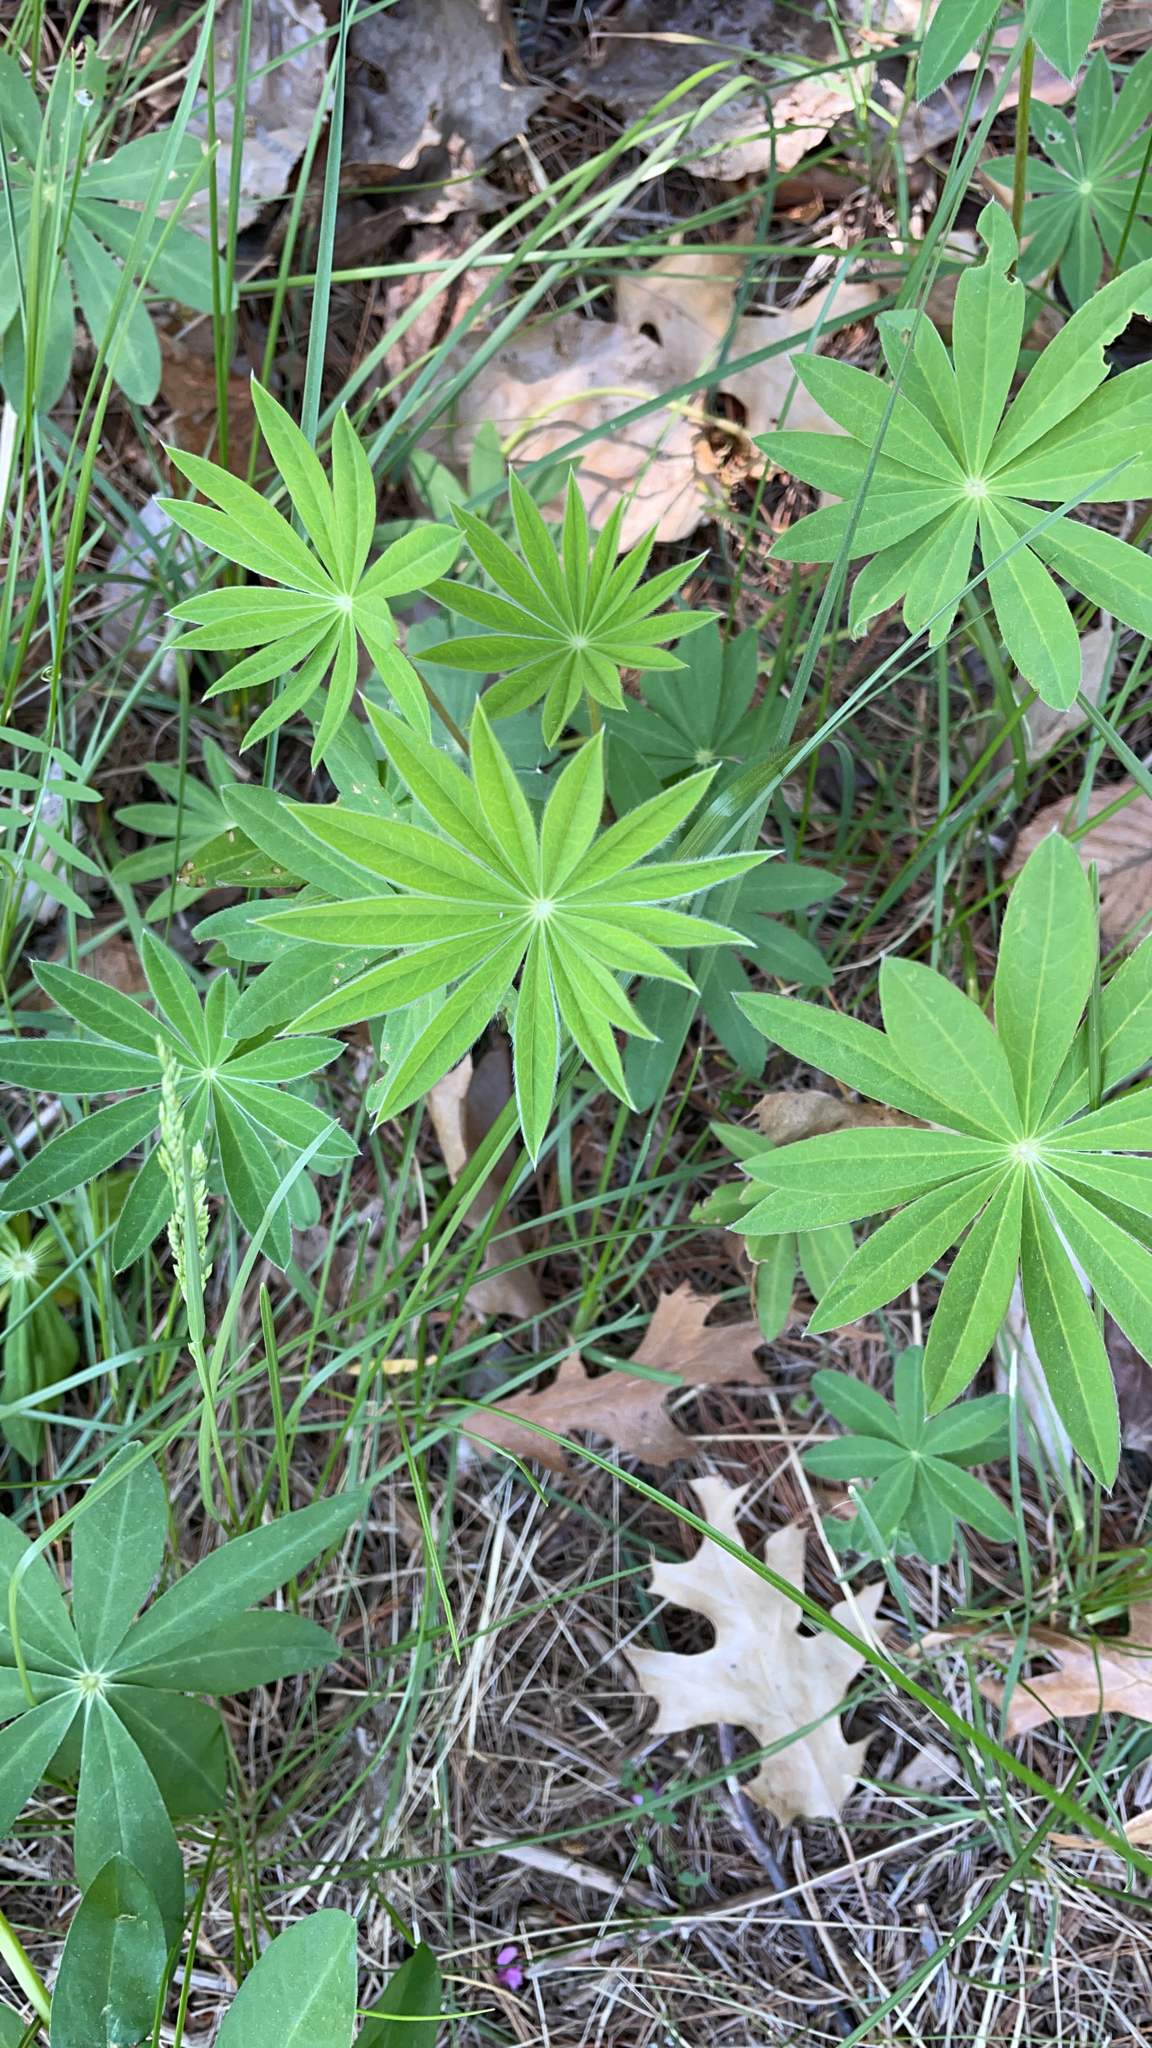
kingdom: Plantae
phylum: Tracheophyta
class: Magnoliopsida
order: Fabales
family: Fabaceae
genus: Lupinus
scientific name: Lupinus polyphyllus
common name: Garden lupin
